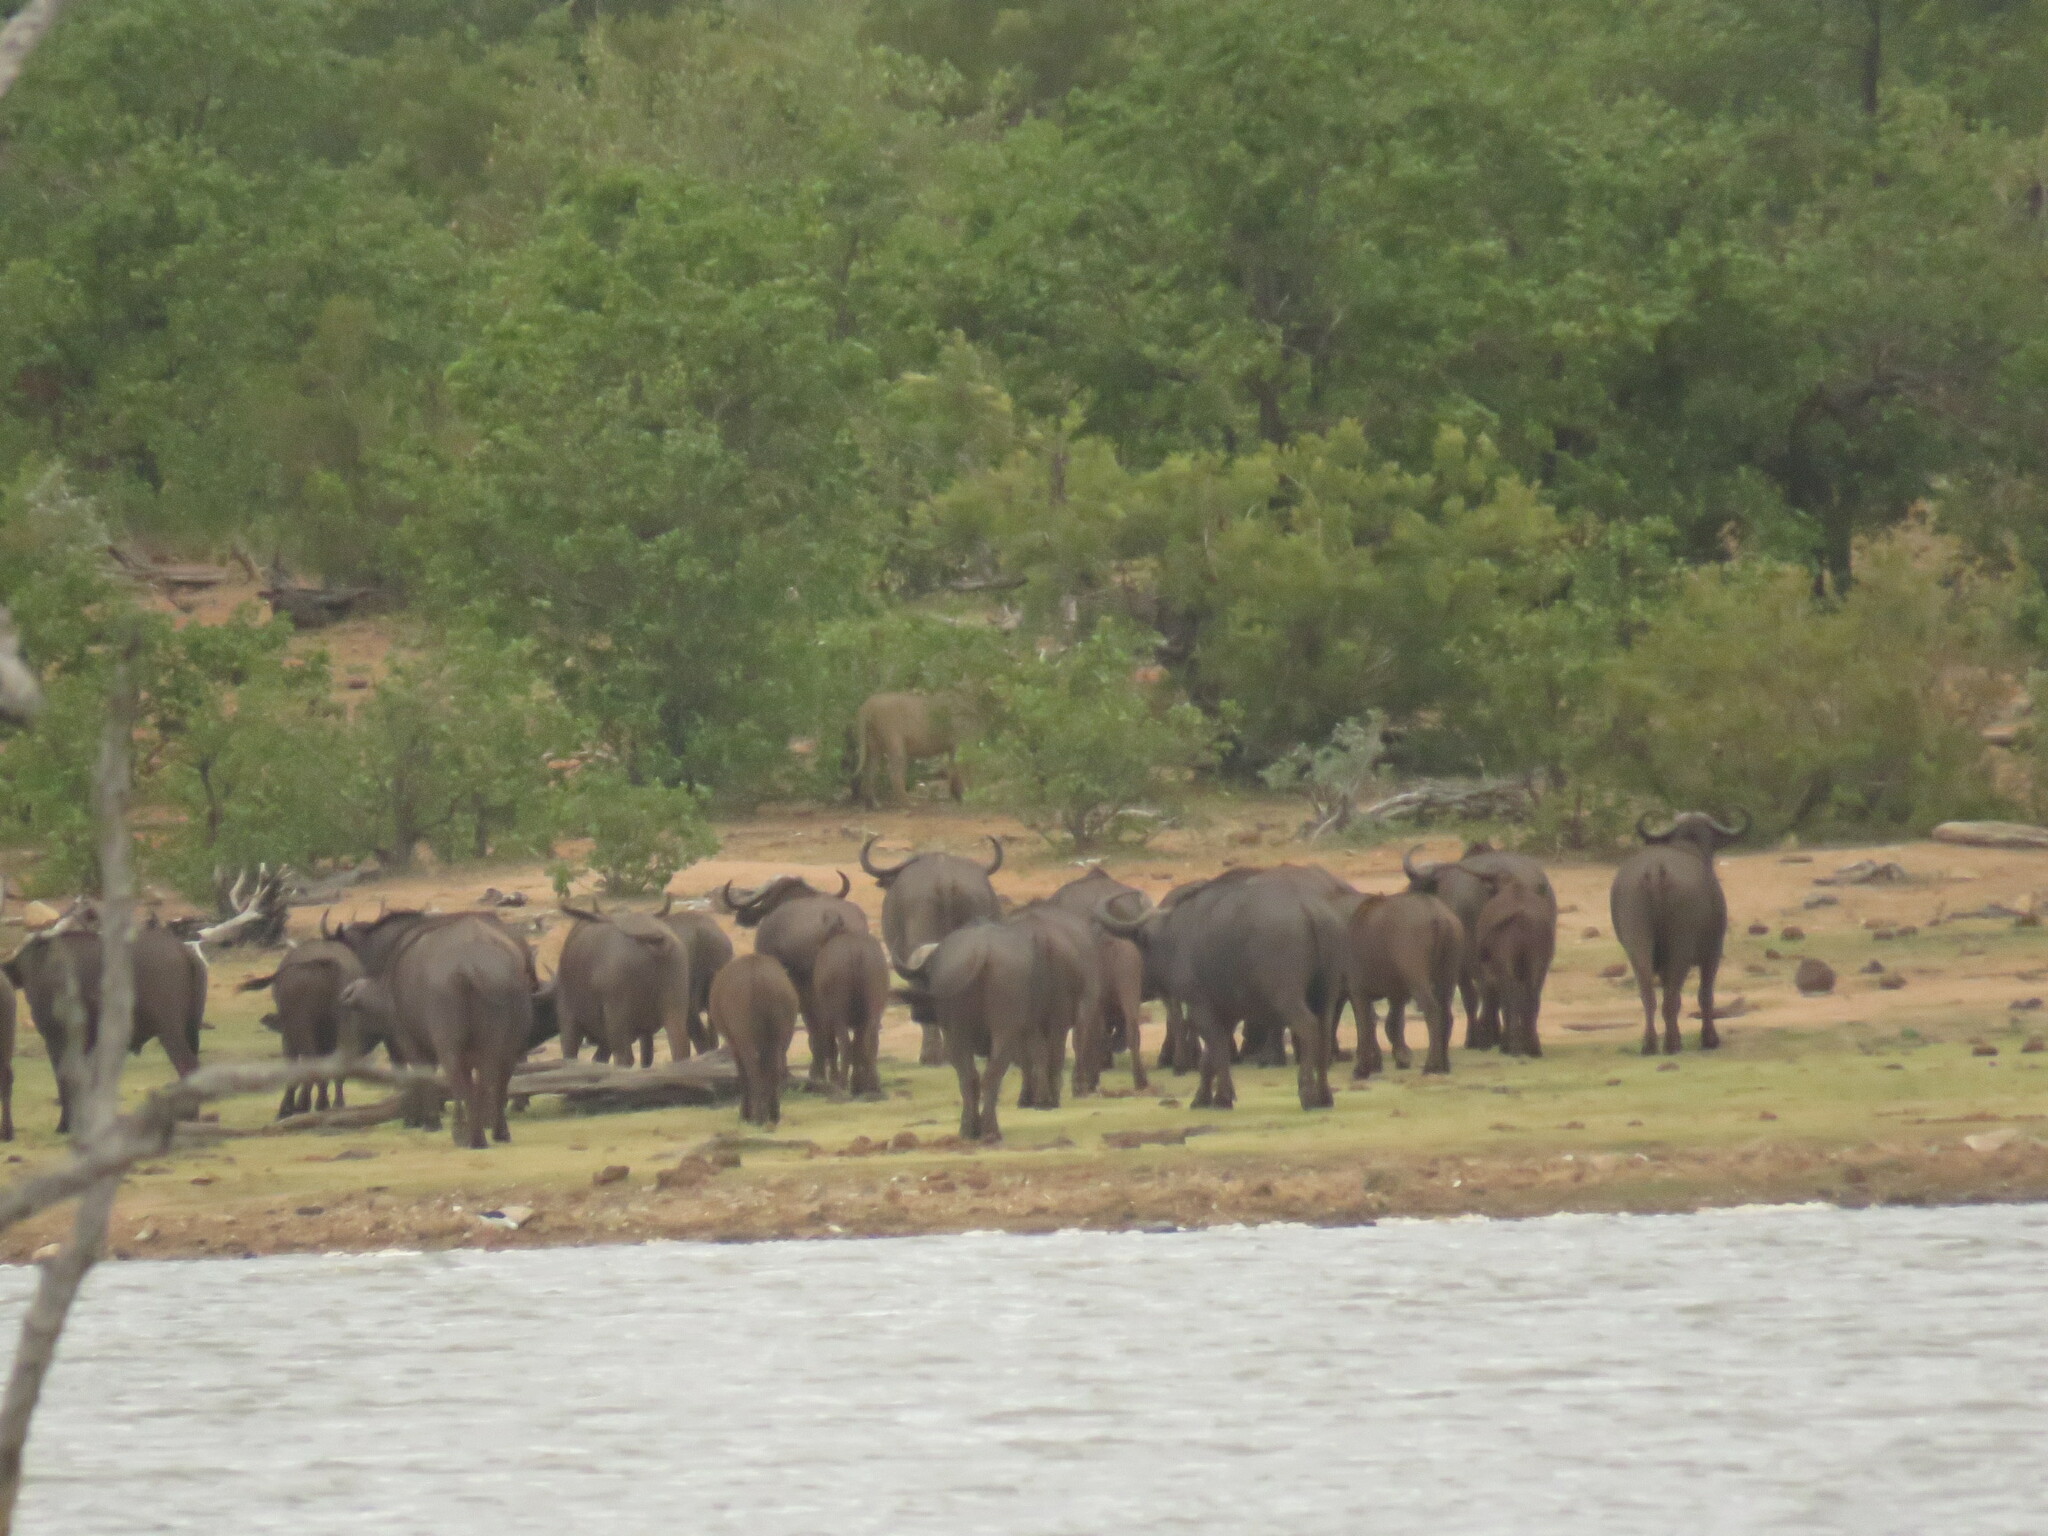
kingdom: Animalia
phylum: Chordata
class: Mammalia
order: Artiodactyla
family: Bovidae
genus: Syncerus
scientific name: Syncerus caffer
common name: African buffalo
